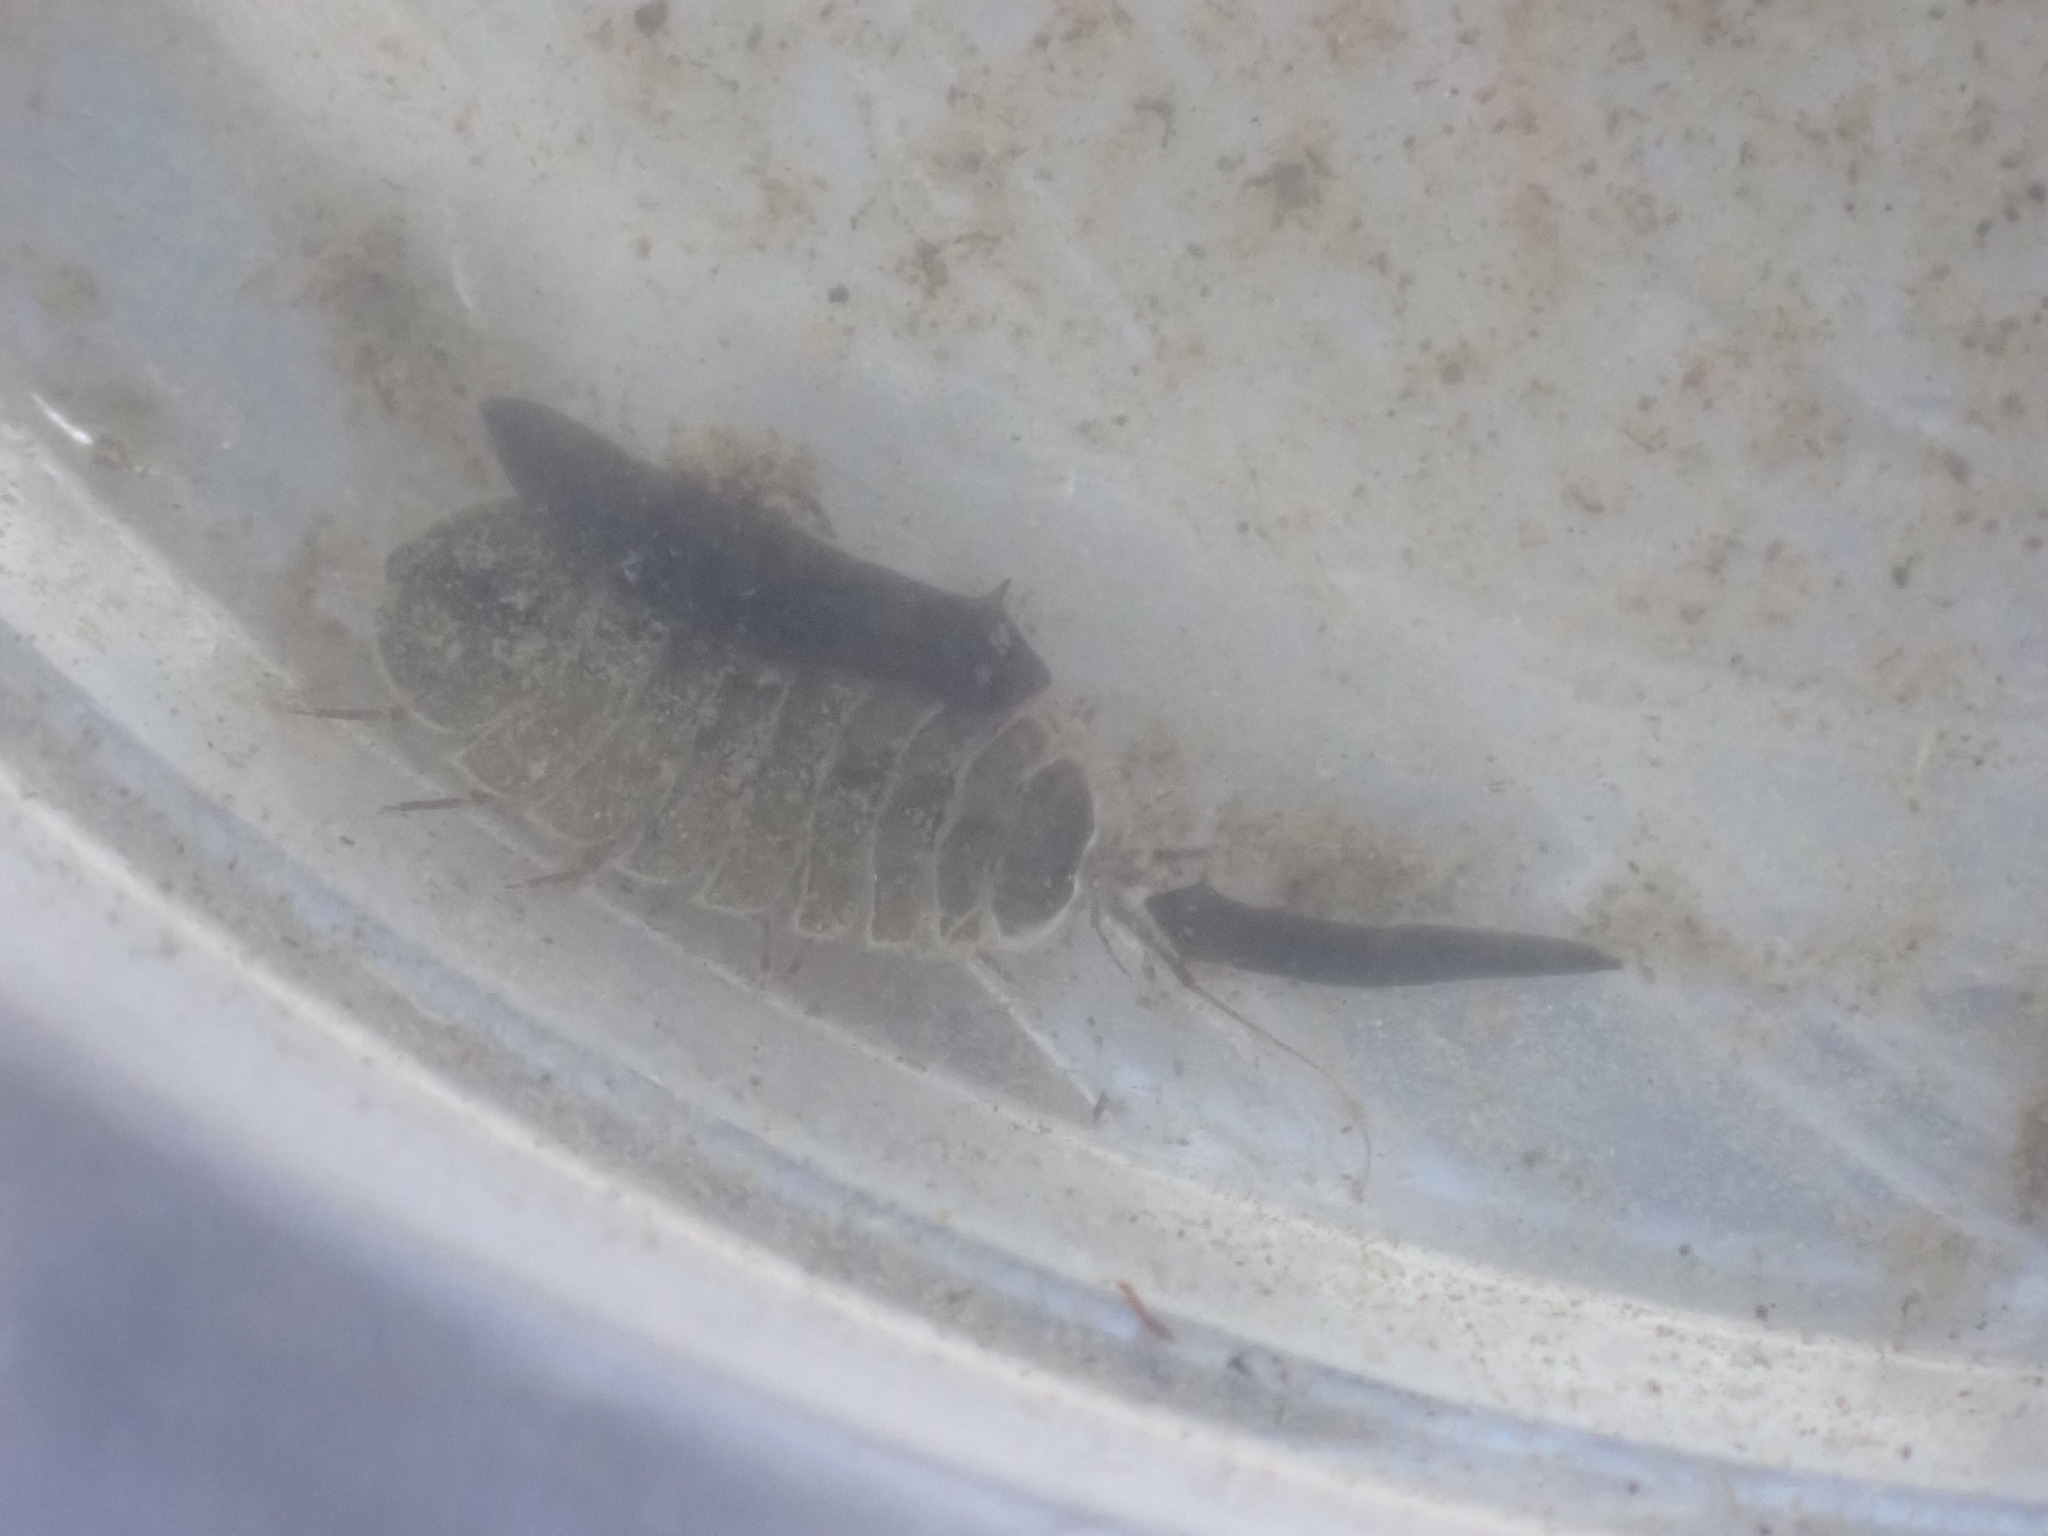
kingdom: Animalia
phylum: Arthropoda
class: Malacostraca
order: Isopoda
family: Asellidae
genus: Lirceus
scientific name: Lirceus brachyurus
